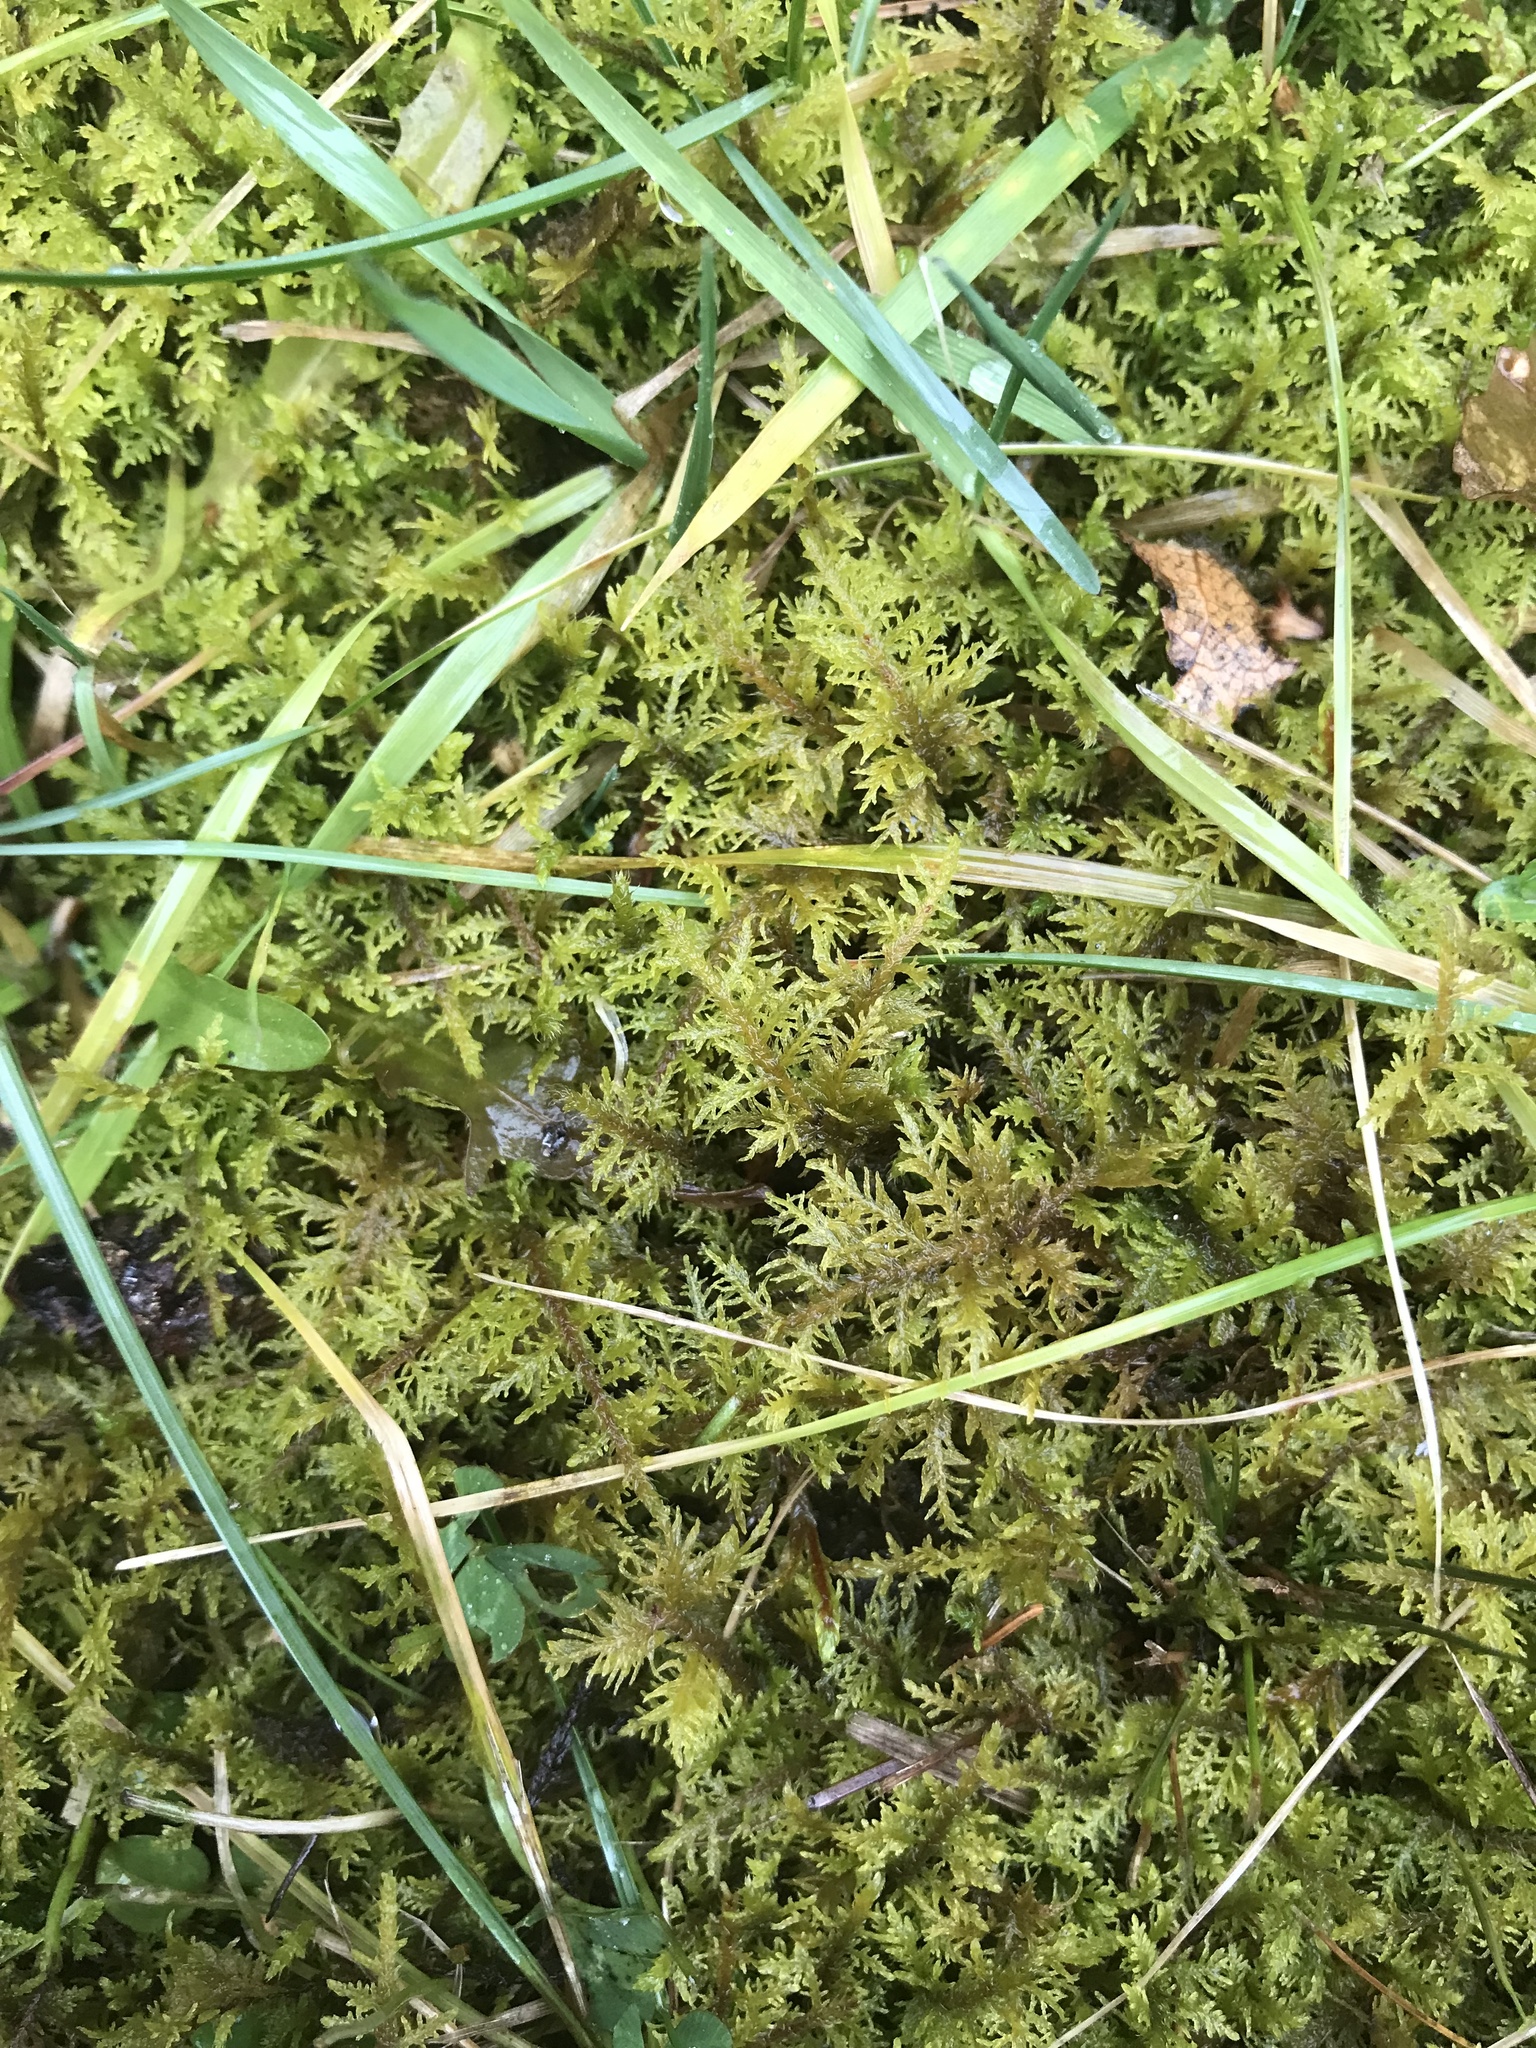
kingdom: Plantae
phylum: Bryophyta
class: Bryopsida
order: Hypnales
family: Hylocomiaceae
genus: Hylocomium
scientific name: Hylocomium splendens
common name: Stairstep moss
